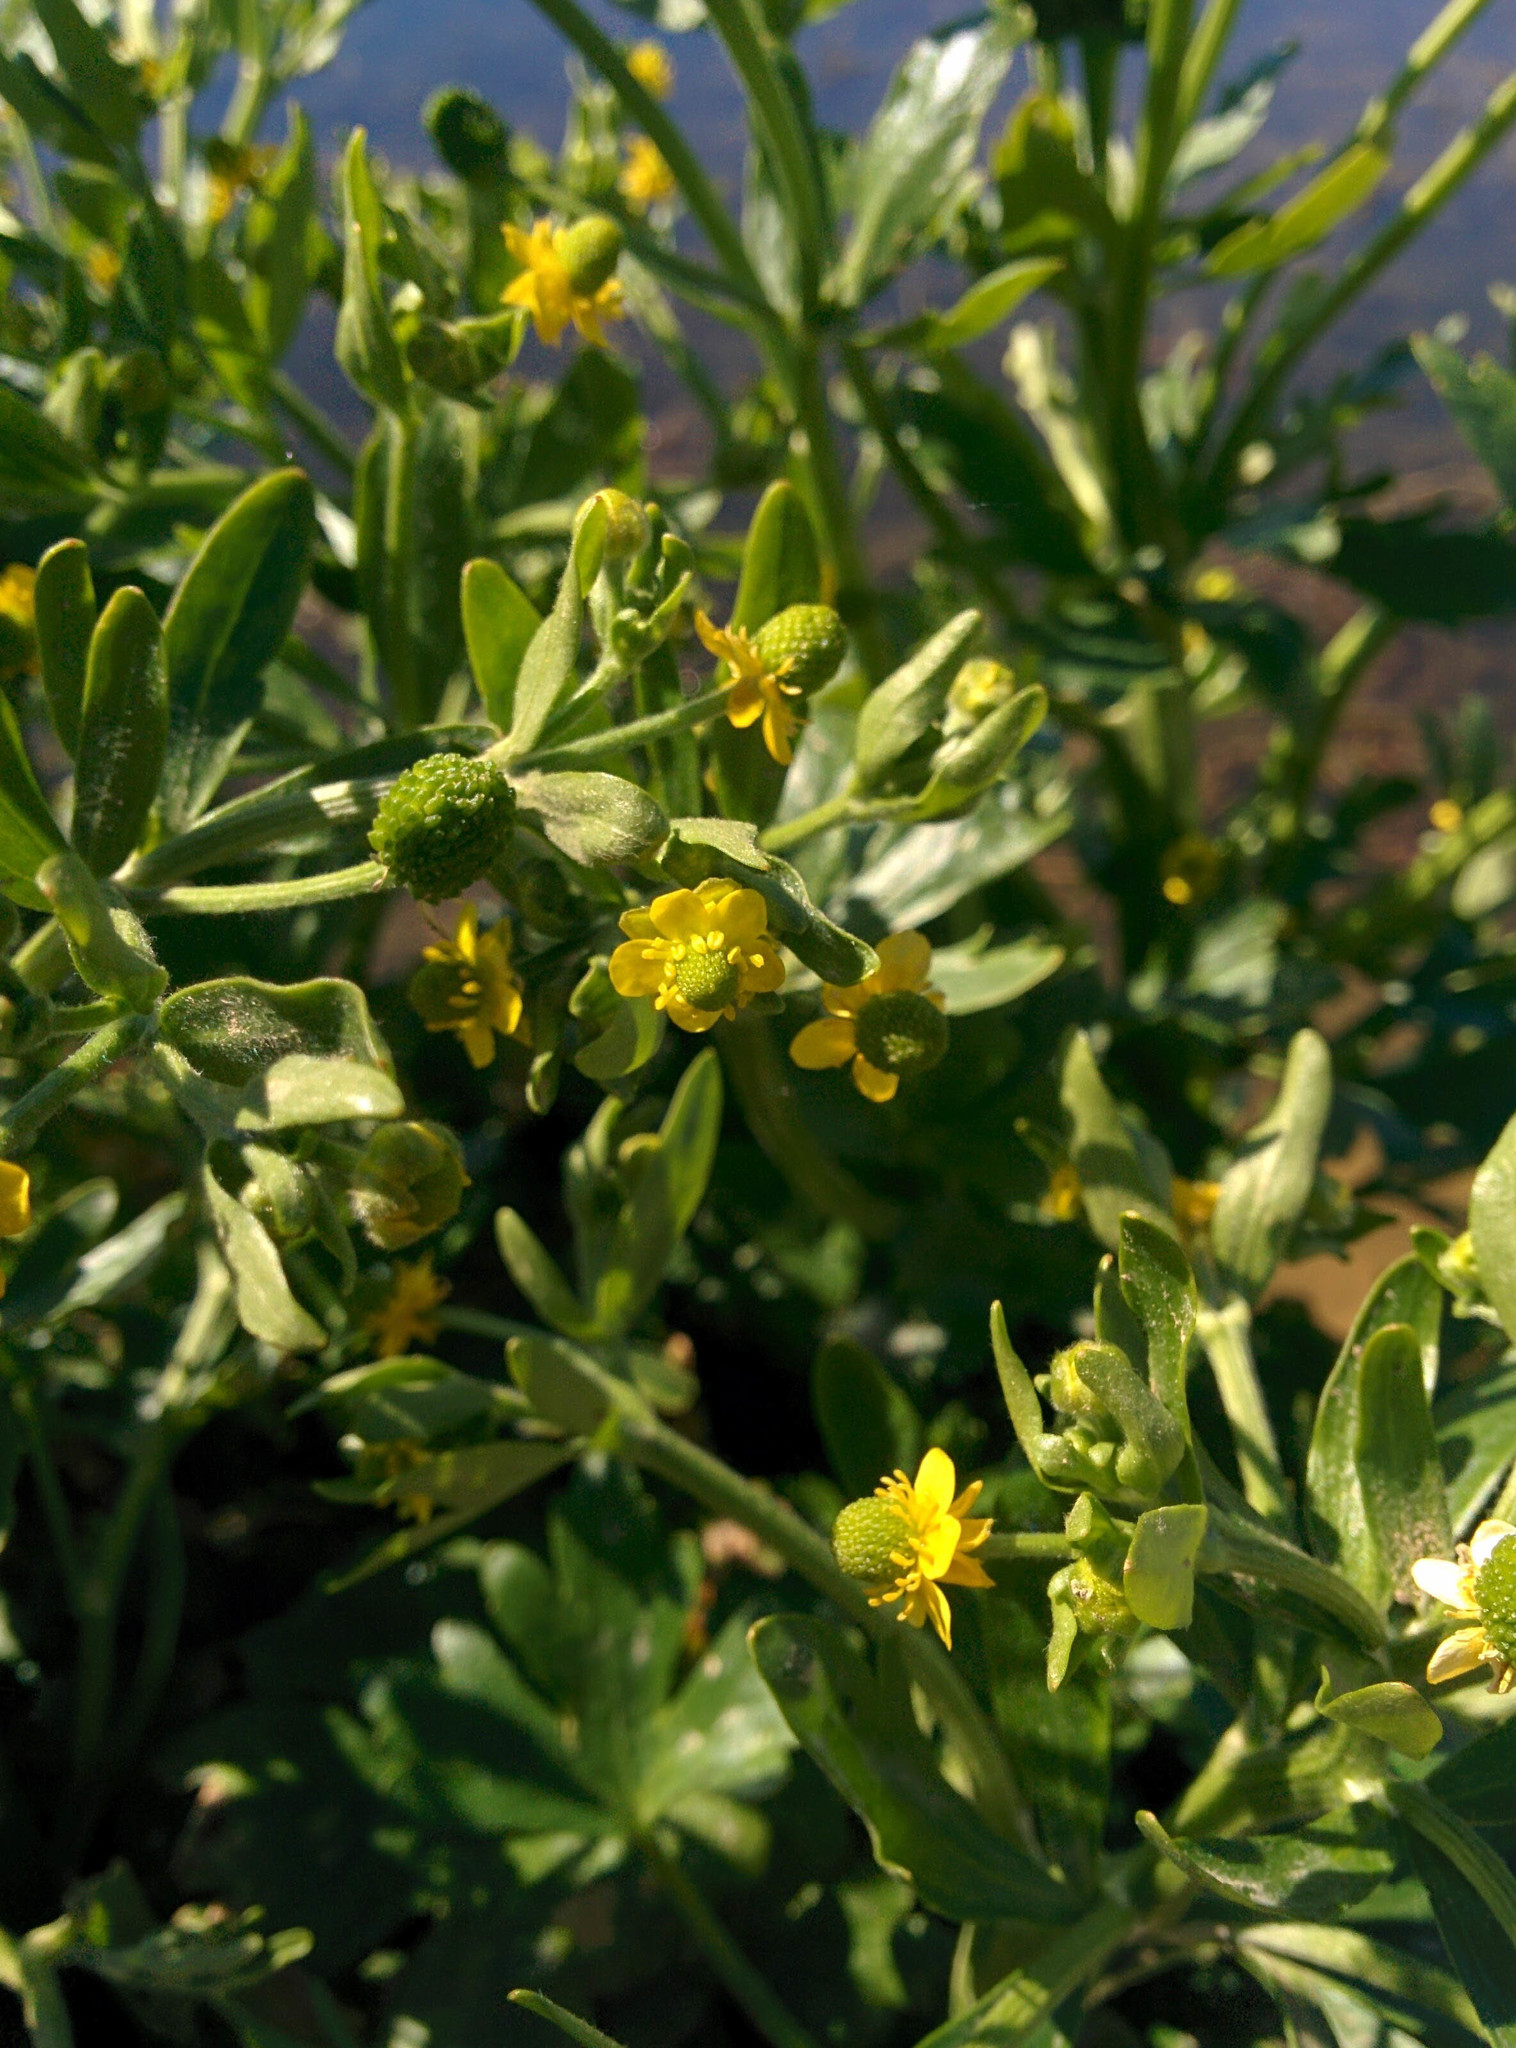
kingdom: Plantae
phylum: Tracheophyta
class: Magnoliopsida
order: Ranunculales
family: Ranunculaceae
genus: Ranunculus
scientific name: Ranunculus sceleratus
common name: Celery-leaved buttercup
